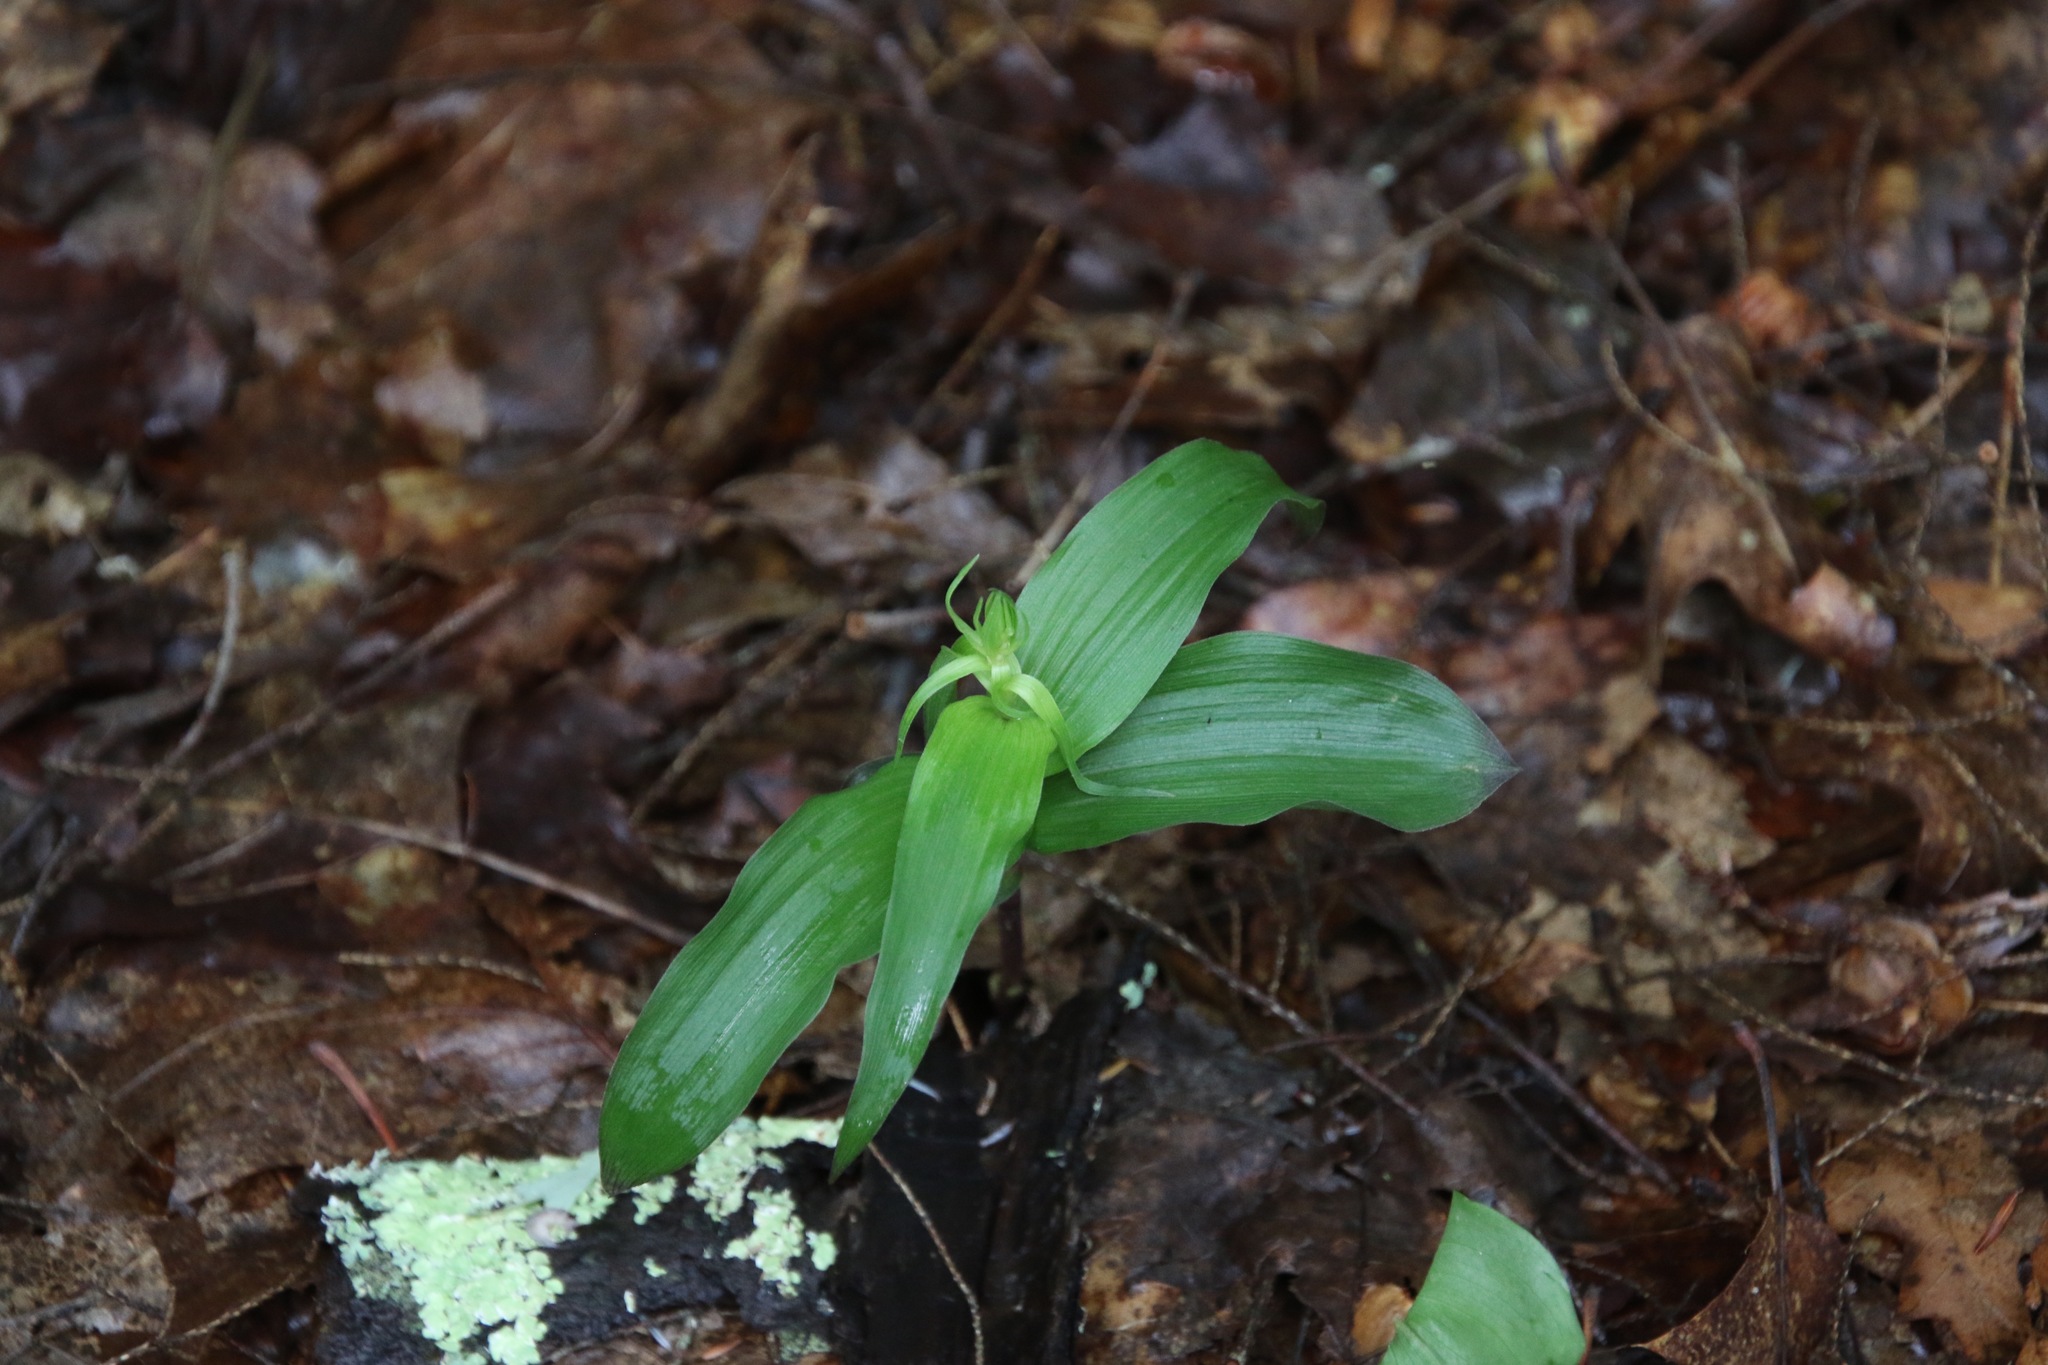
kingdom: Plantae
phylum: Tracheophyta
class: Liliopsida
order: Asparagales
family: Orchidaceae
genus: Epipactis
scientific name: Epipactis helleborine
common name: Broad-leaved helleborine
